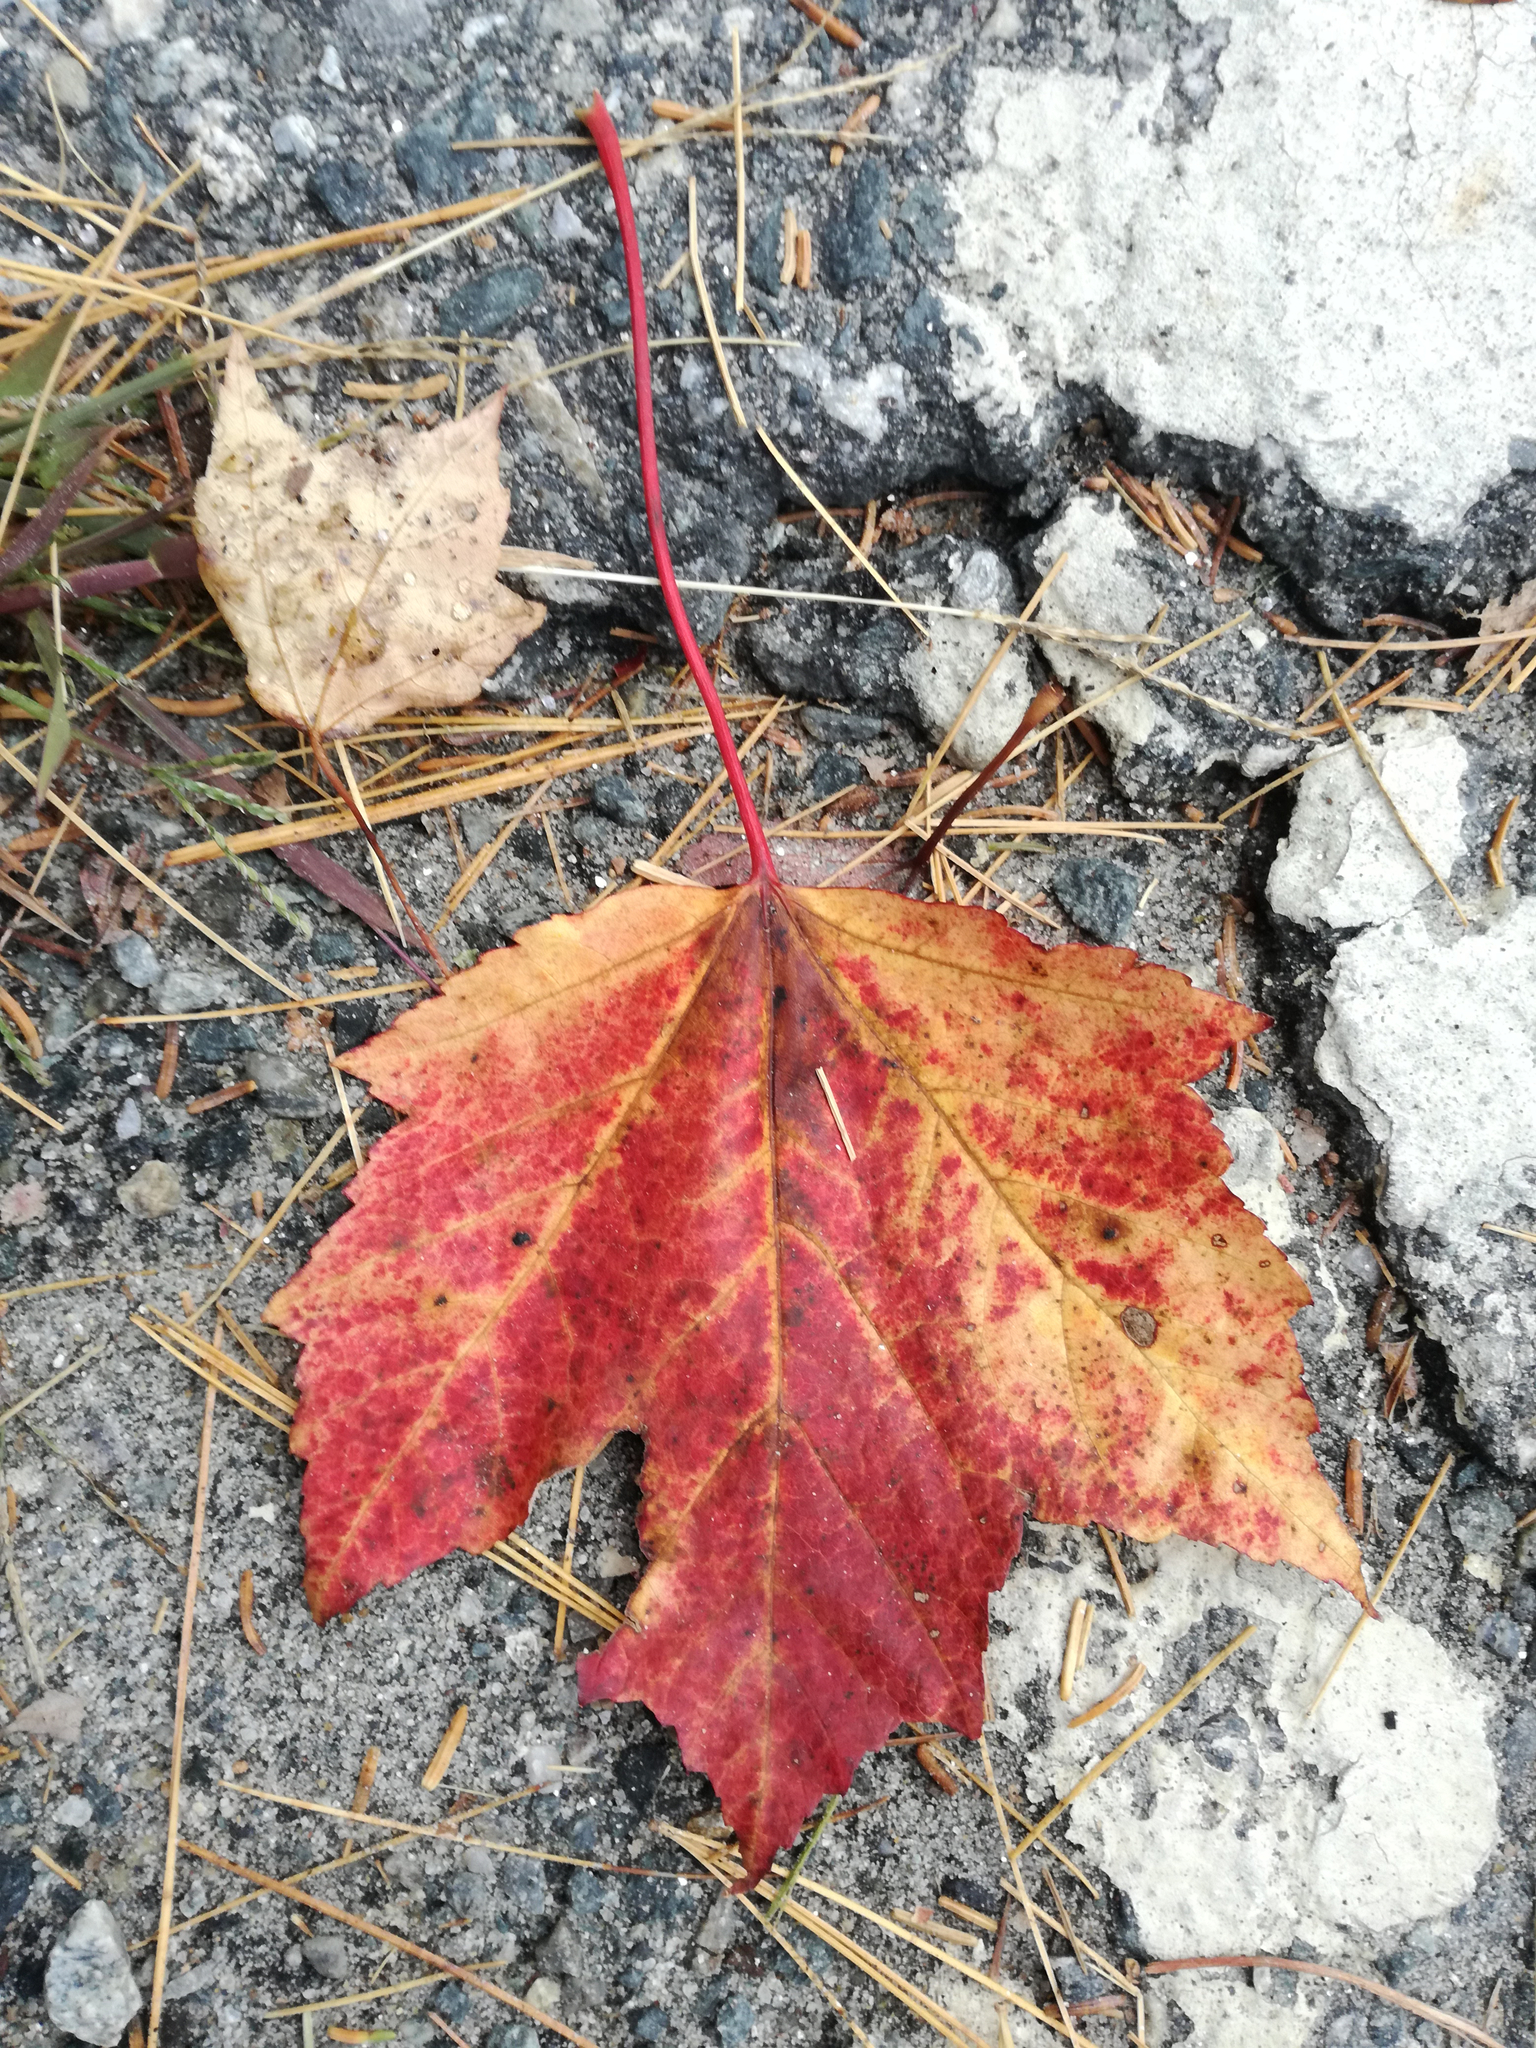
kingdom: Plantae
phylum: Tracheophyta
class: Magnoliopsida
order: Sapindales
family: Sapindaceae
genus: Acer
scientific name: Acer rubrum
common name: Red maple
